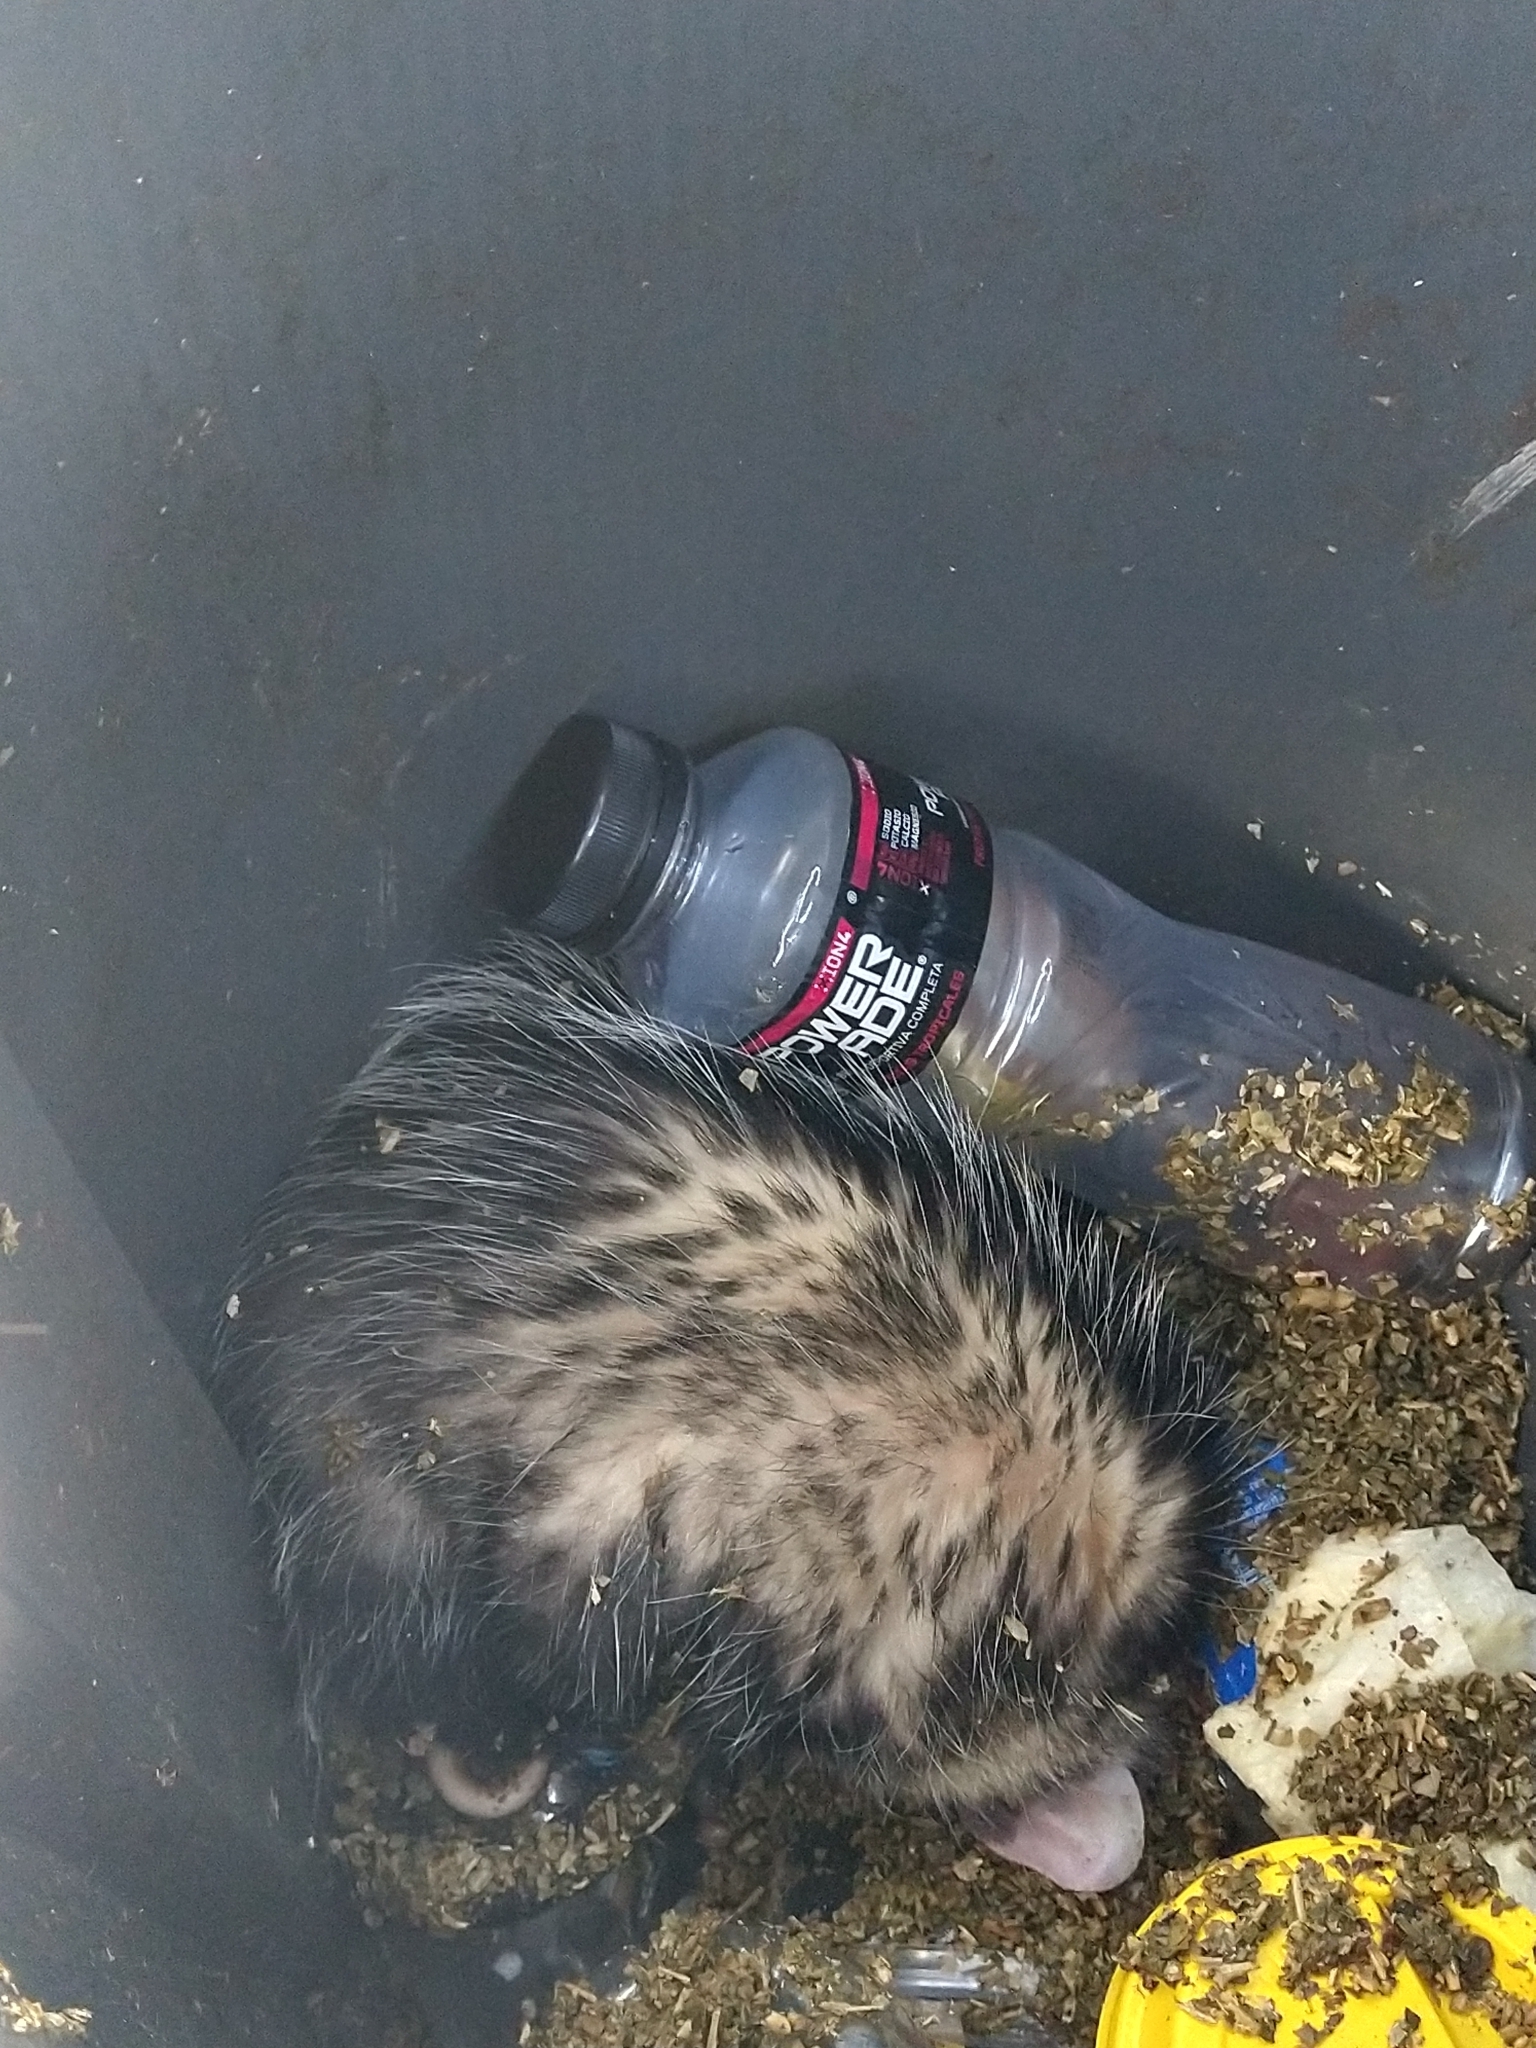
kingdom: Animalia
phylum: Chordata
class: Mammalia
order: Didelphimorphia
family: Didelphidae
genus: Didelphis
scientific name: Didelphis albiventris
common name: White-eared opossum
